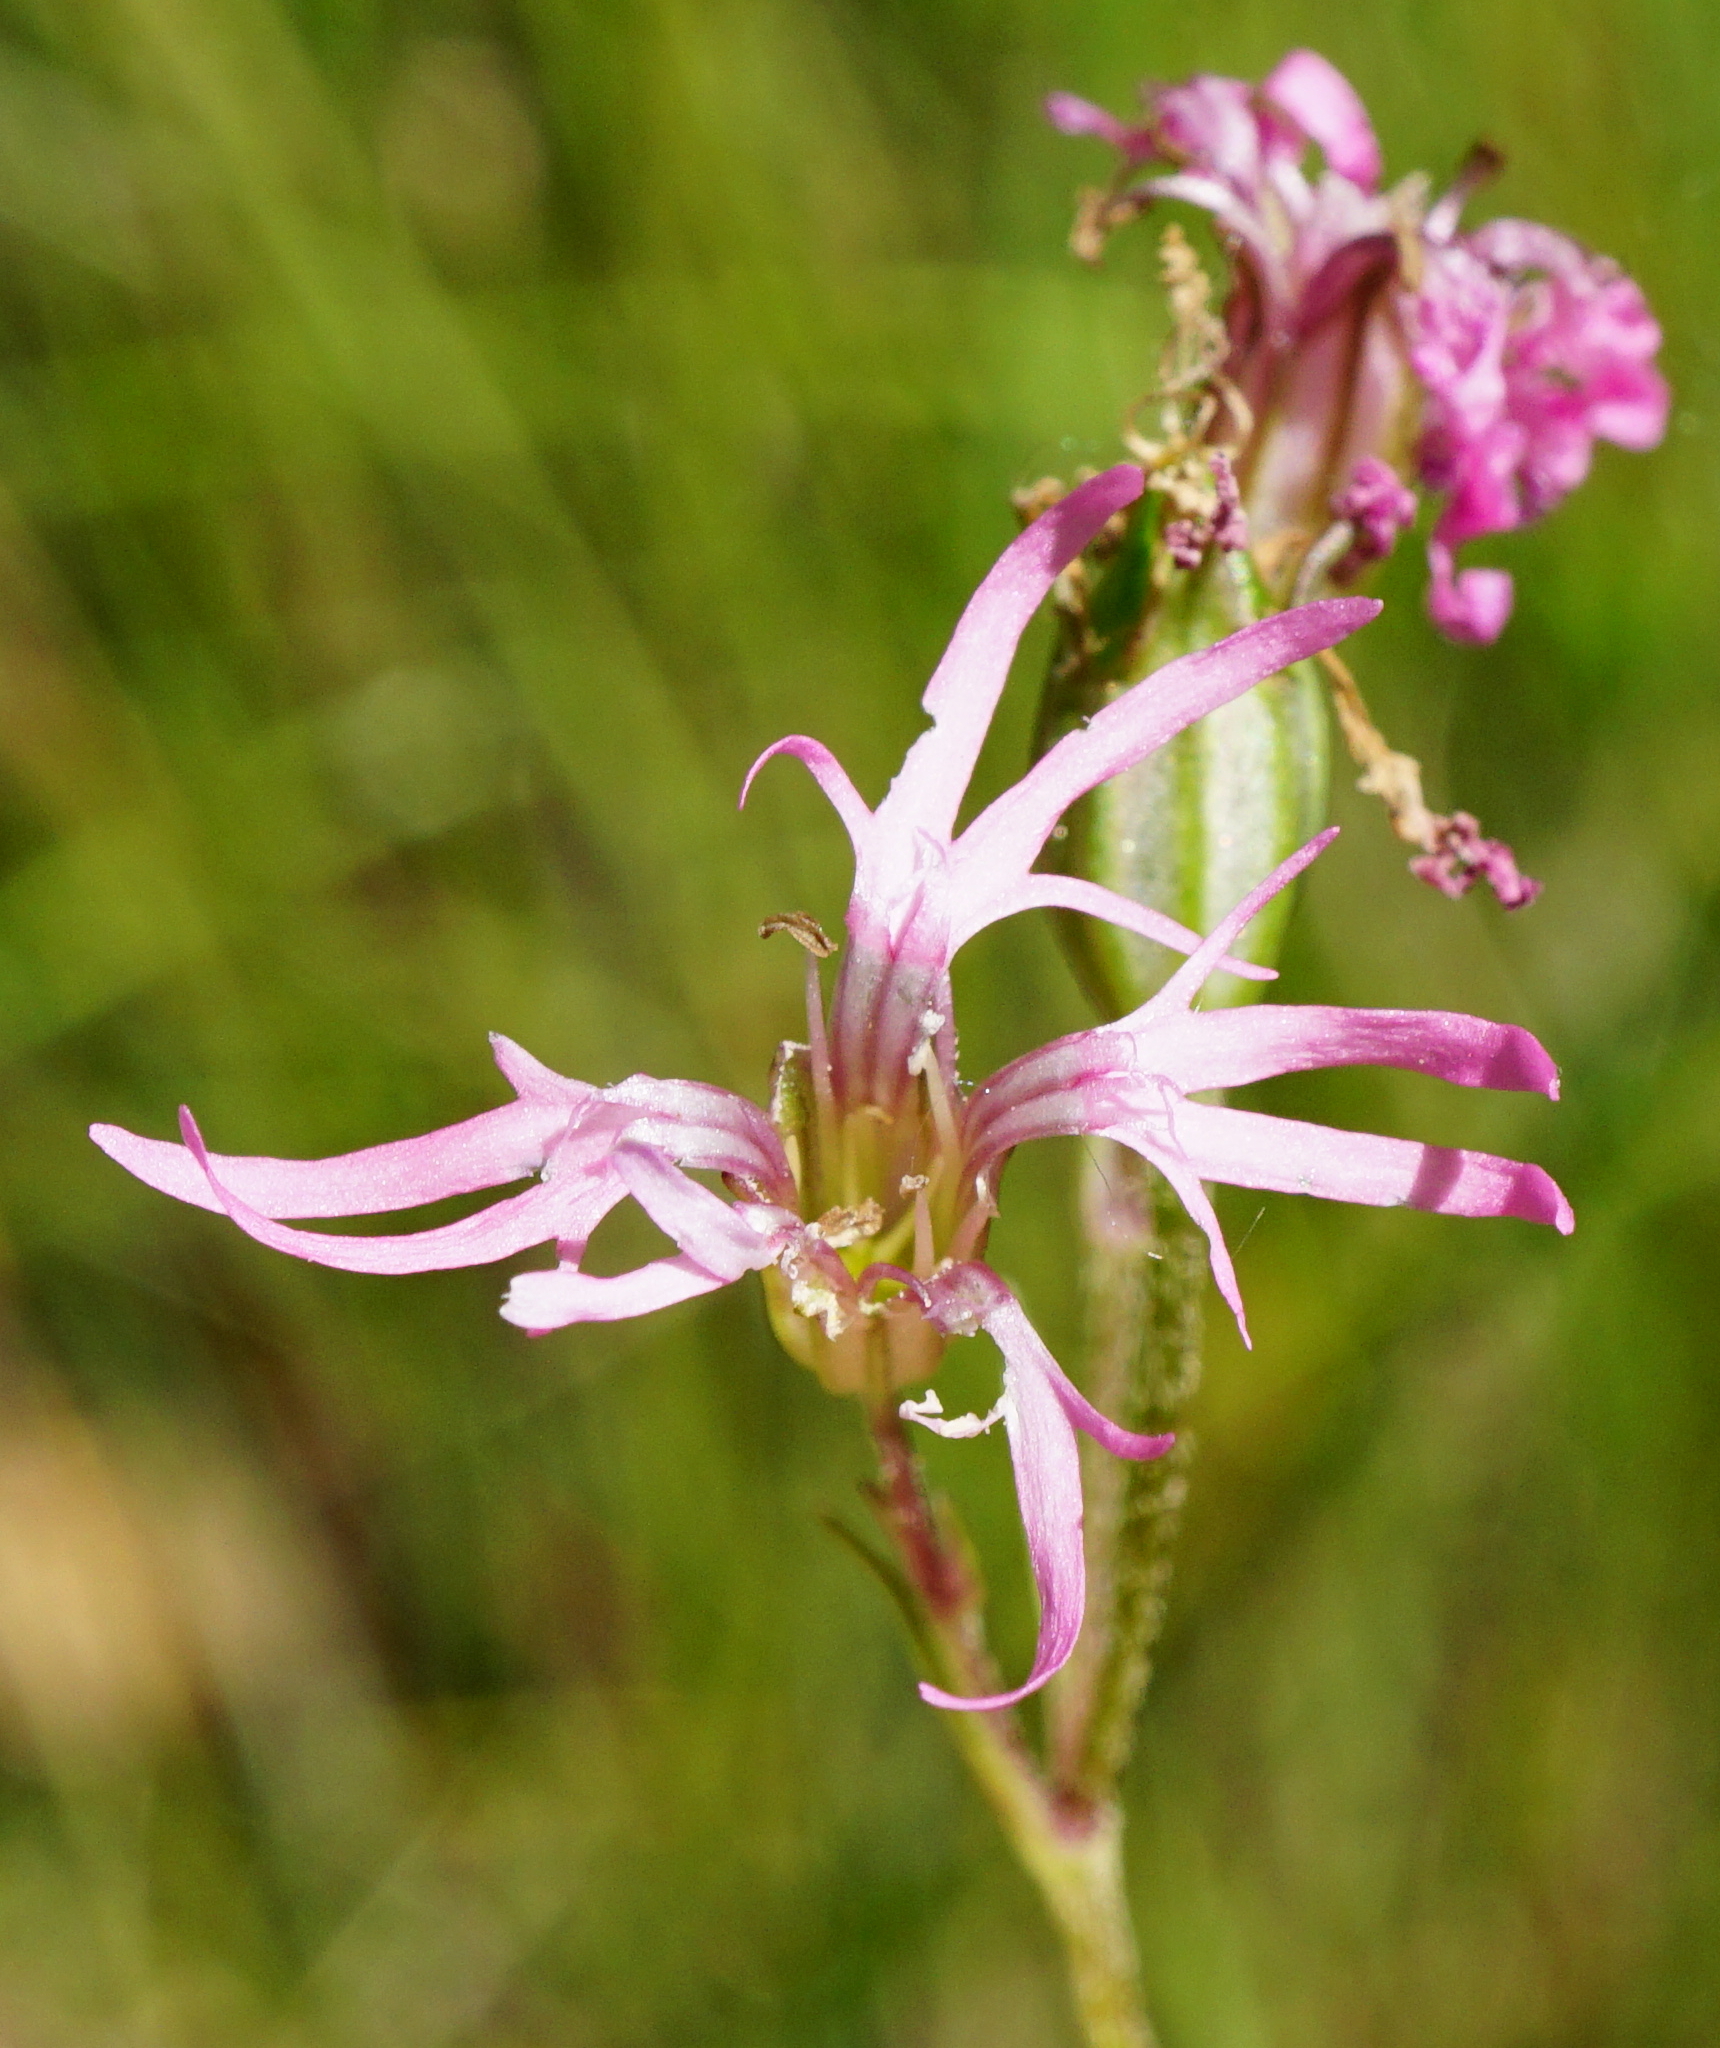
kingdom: Plantae
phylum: Tracheophyta
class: Magnoliopsida
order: Caryophyllales
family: Caryophyllaceae
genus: Silene
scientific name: Silene flos-cuculi
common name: Ragged-robin
